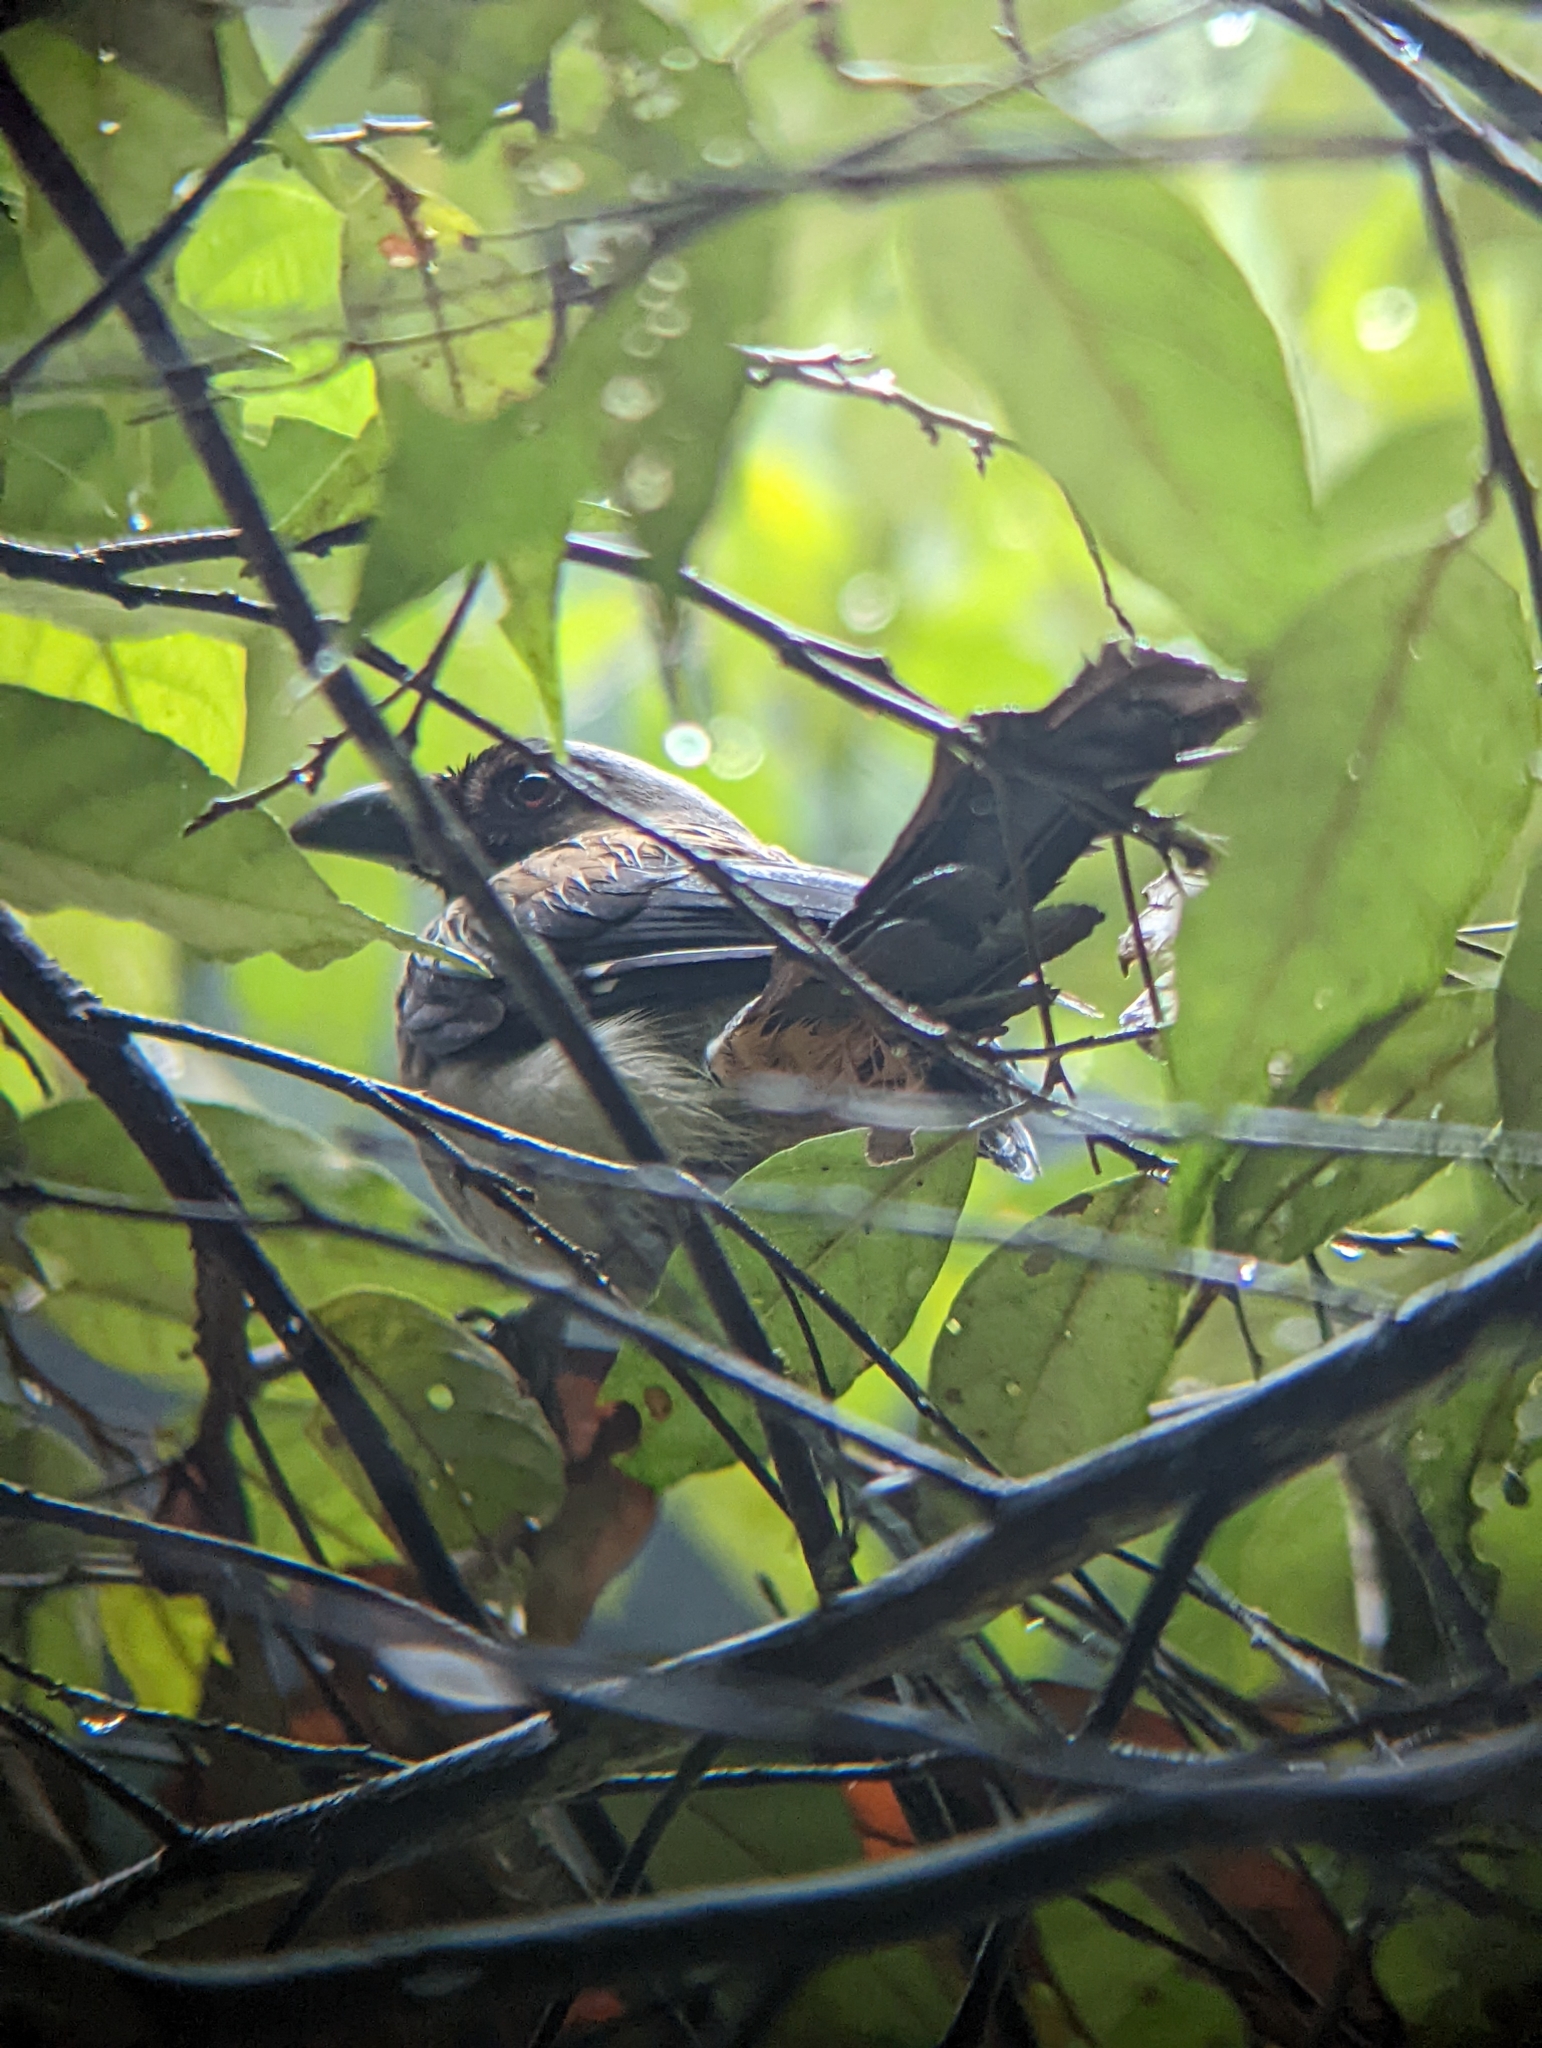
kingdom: Animalia
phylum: Chordata
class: Aves
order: Passeriformes
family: Corvidae
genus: Dendrocitta
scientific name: Dendrocitta formosae
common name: Grey treepie
